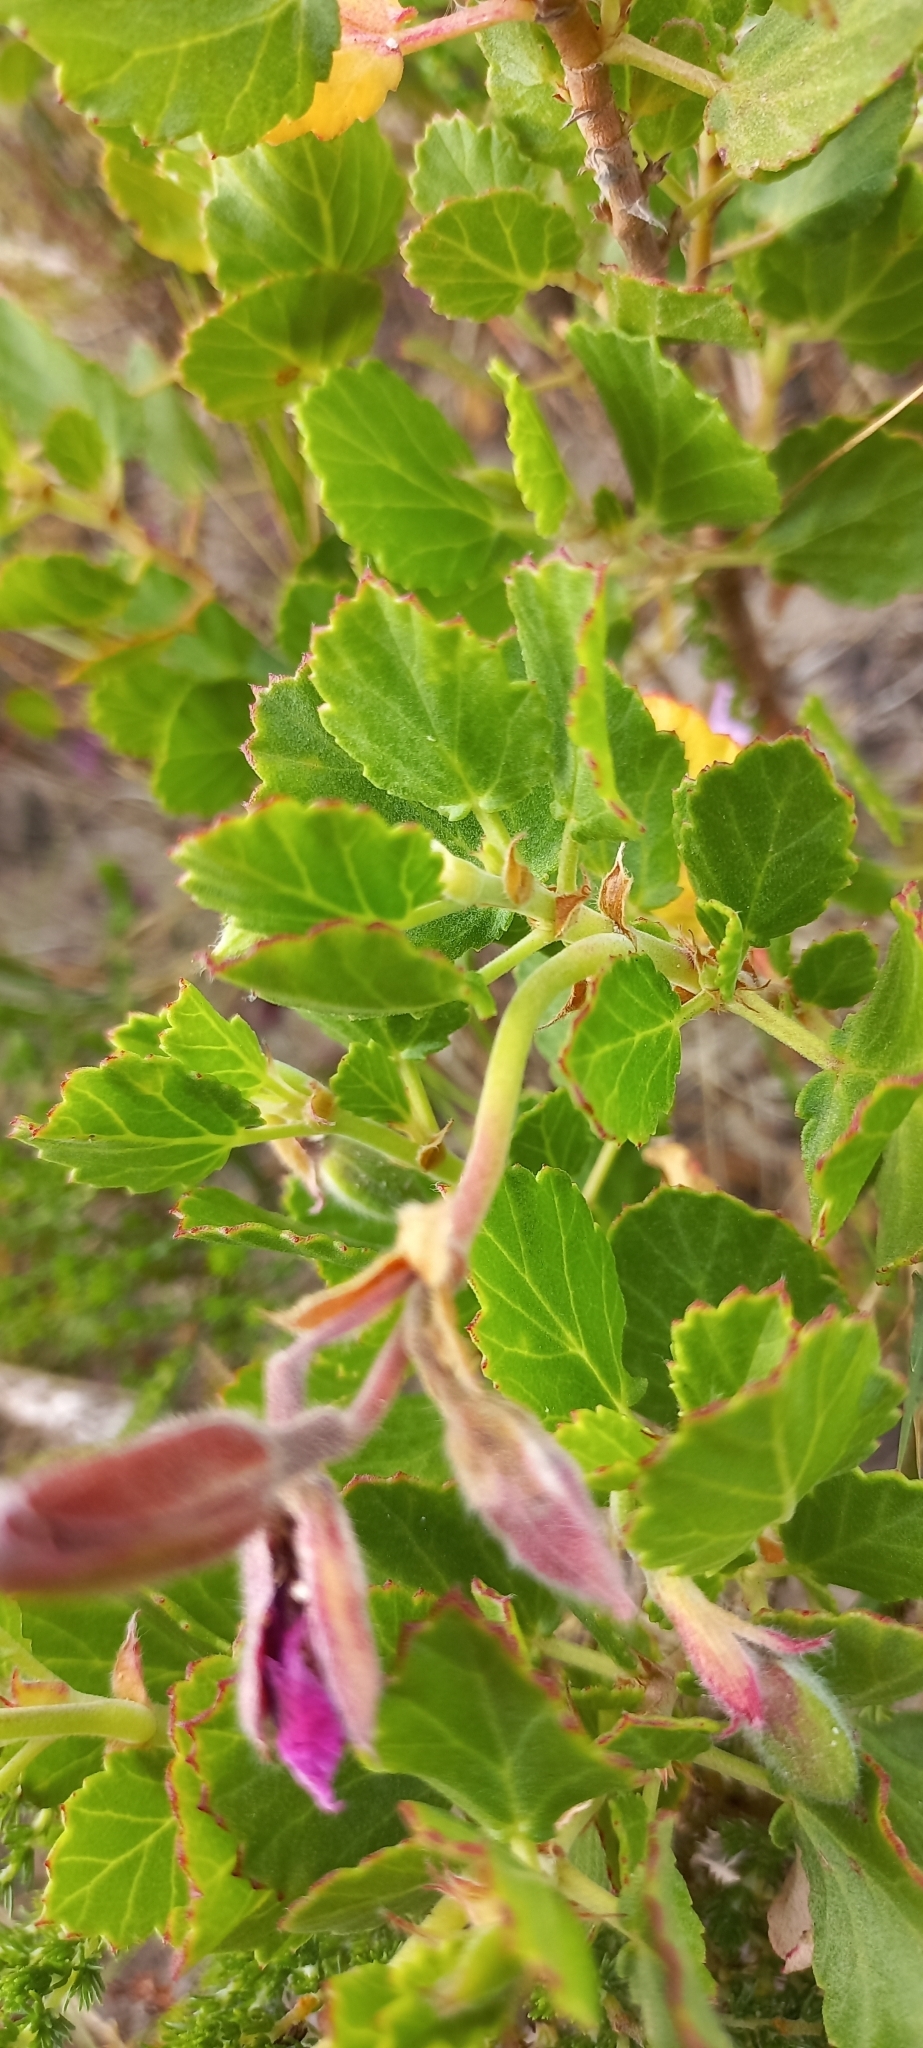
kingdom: Plantae
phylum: Tracheophyta
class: Magnoliopsida
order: Geraniales
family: Geraniaceae
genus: Pelargonium
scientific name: Pelargonium betulinum
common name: Birch-leaf pelargonium
